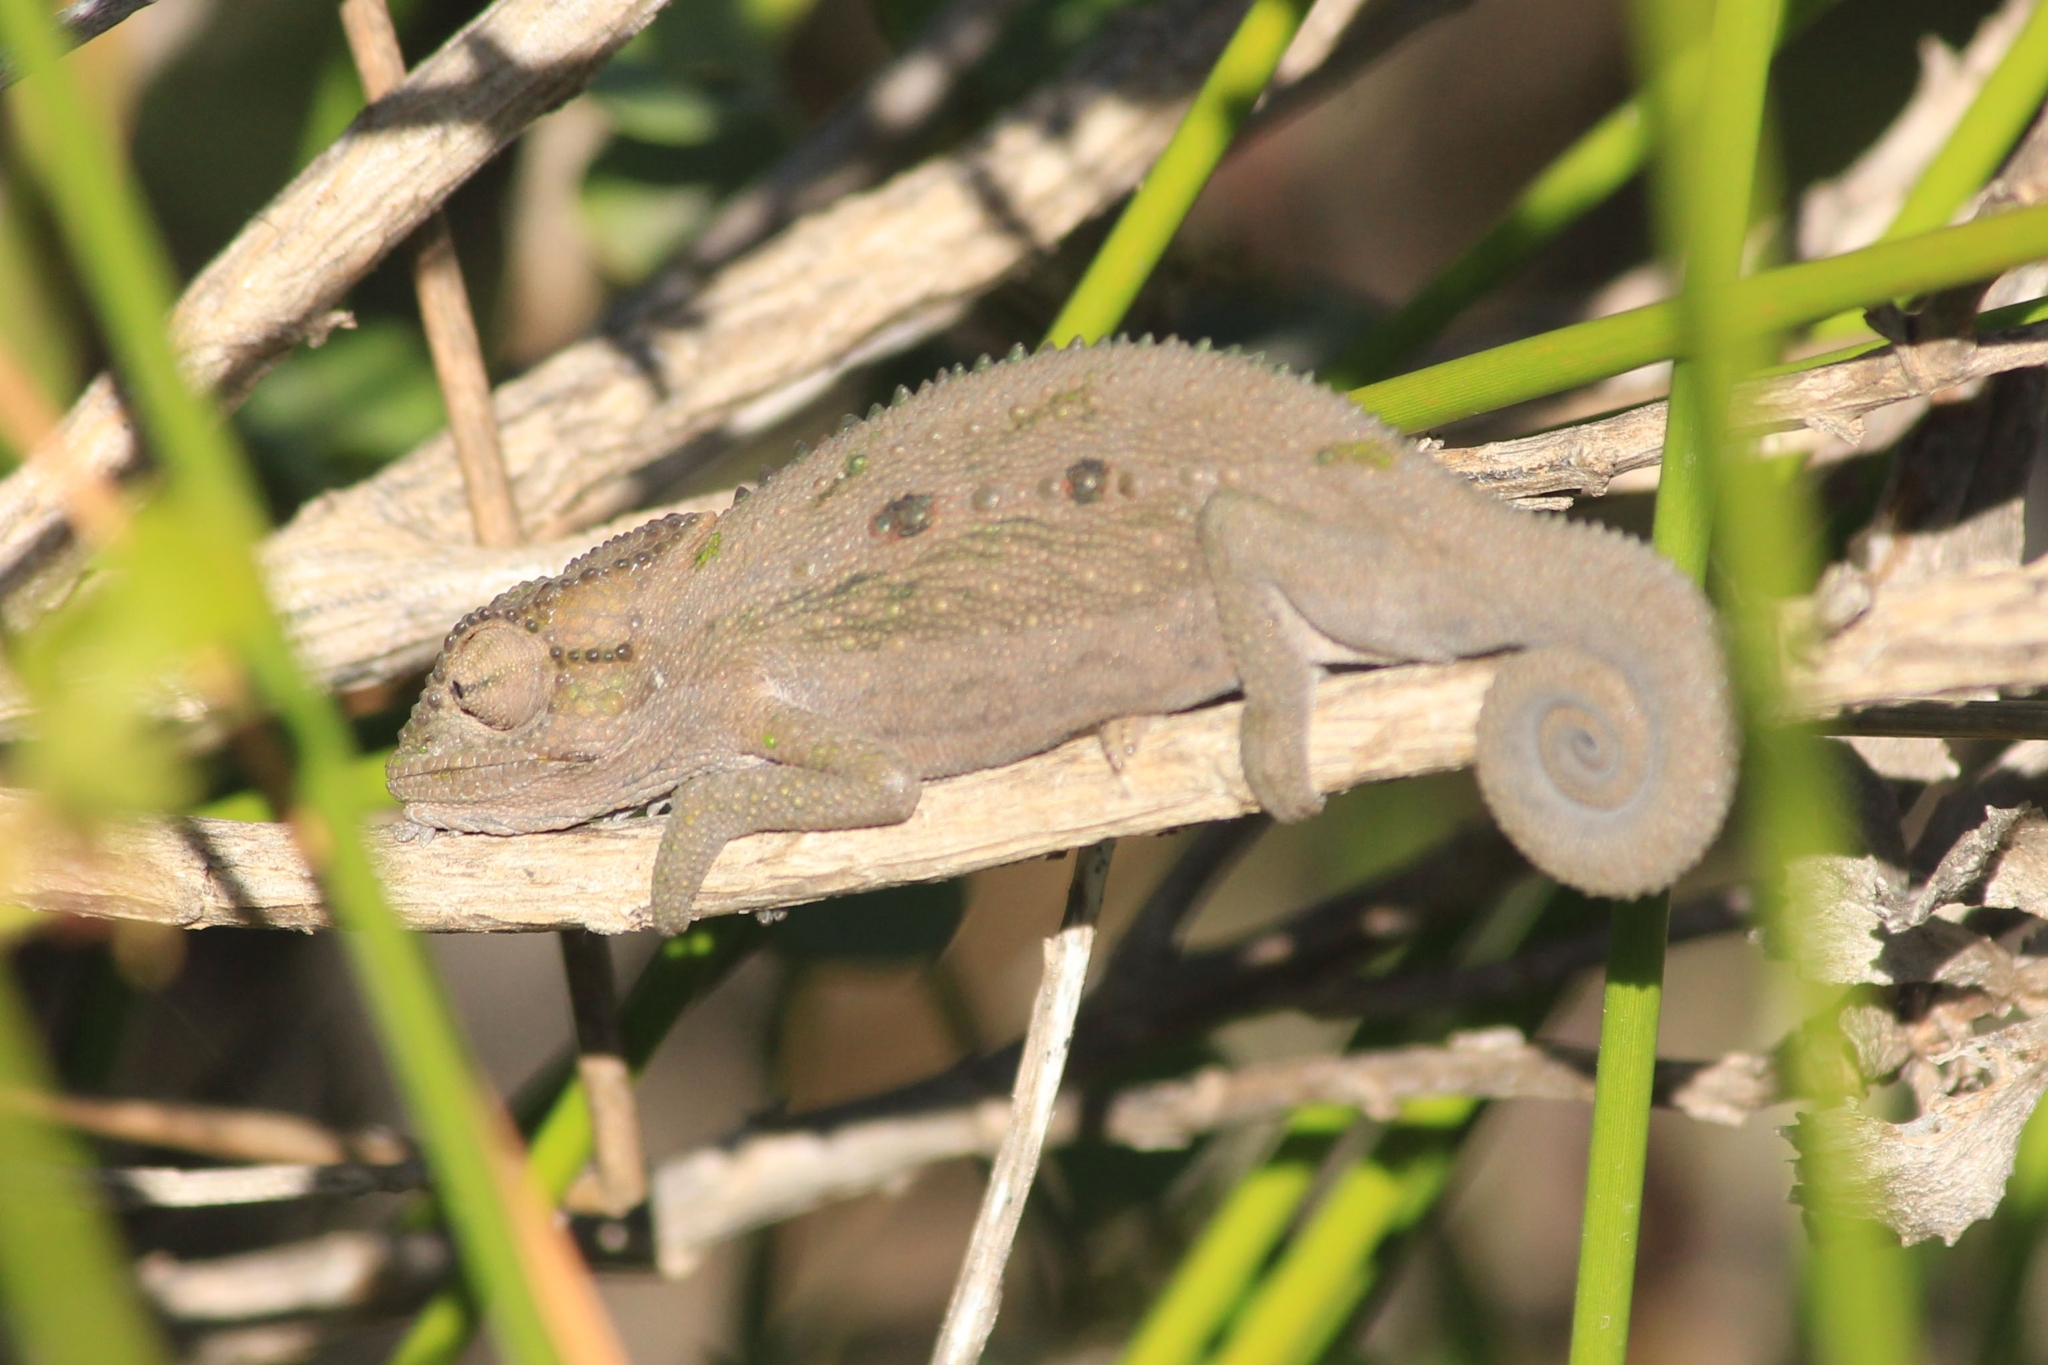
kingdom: Animalia
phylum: Chordata
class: Squamata
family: Chamaeleonidae
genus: Bradypodion
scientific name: Bradypodion pumilum
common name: Cape dwarf chameleon
